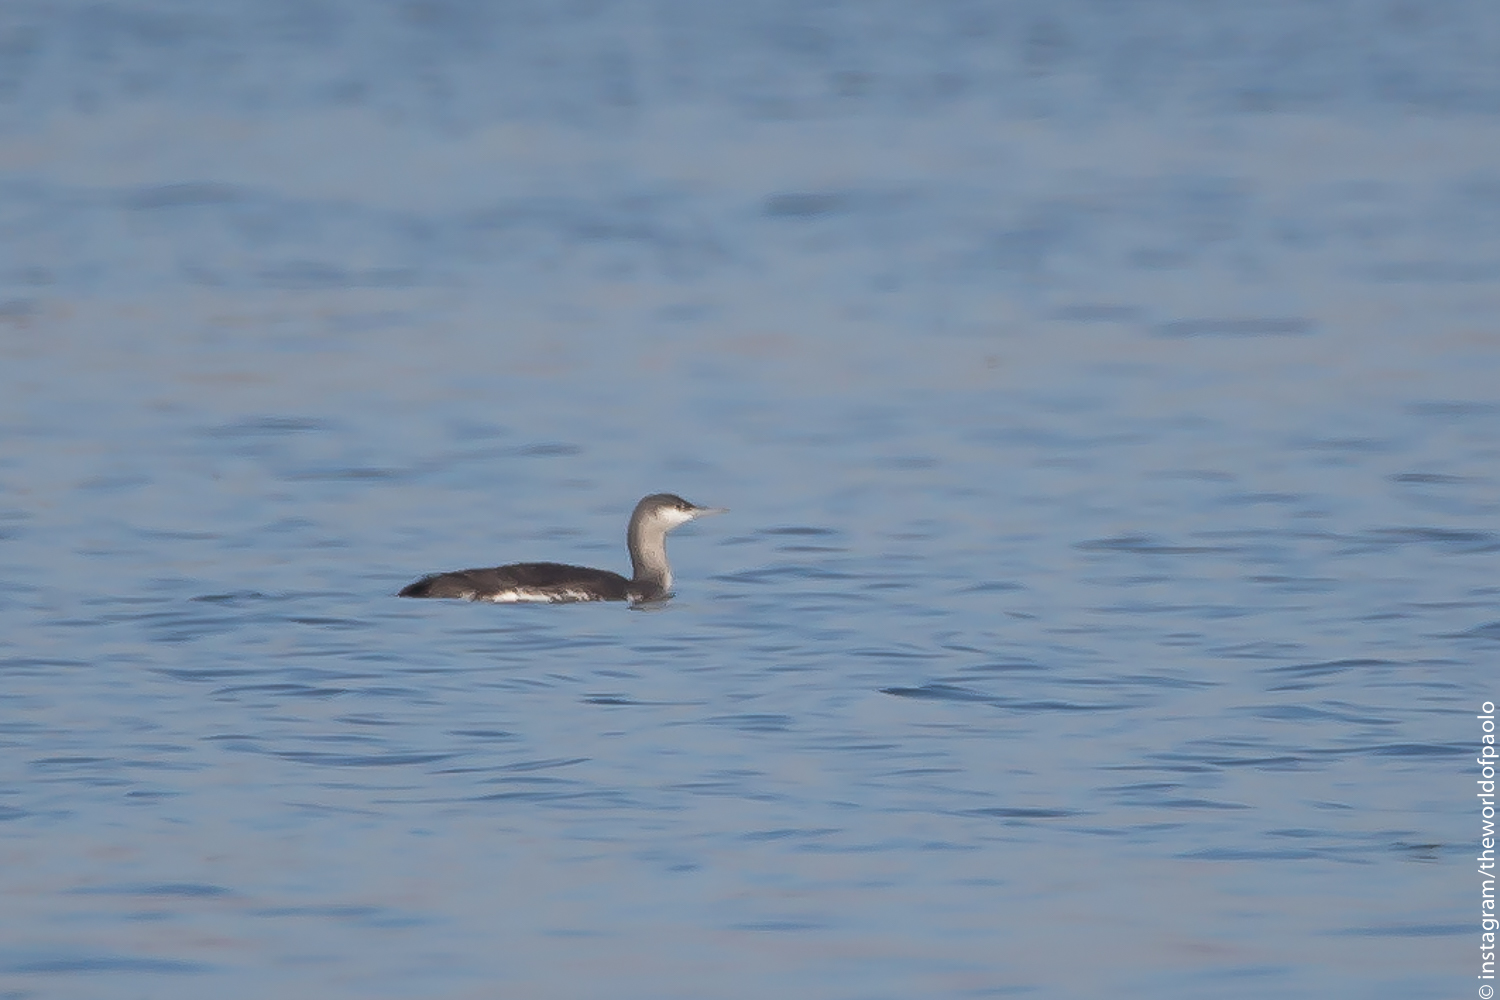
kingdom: Animalia
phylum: Chordata
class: Aves
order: Gaviiformes
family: Gaviidae
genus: Gavia
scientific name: Gavia stellata
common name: Red-throated loon
